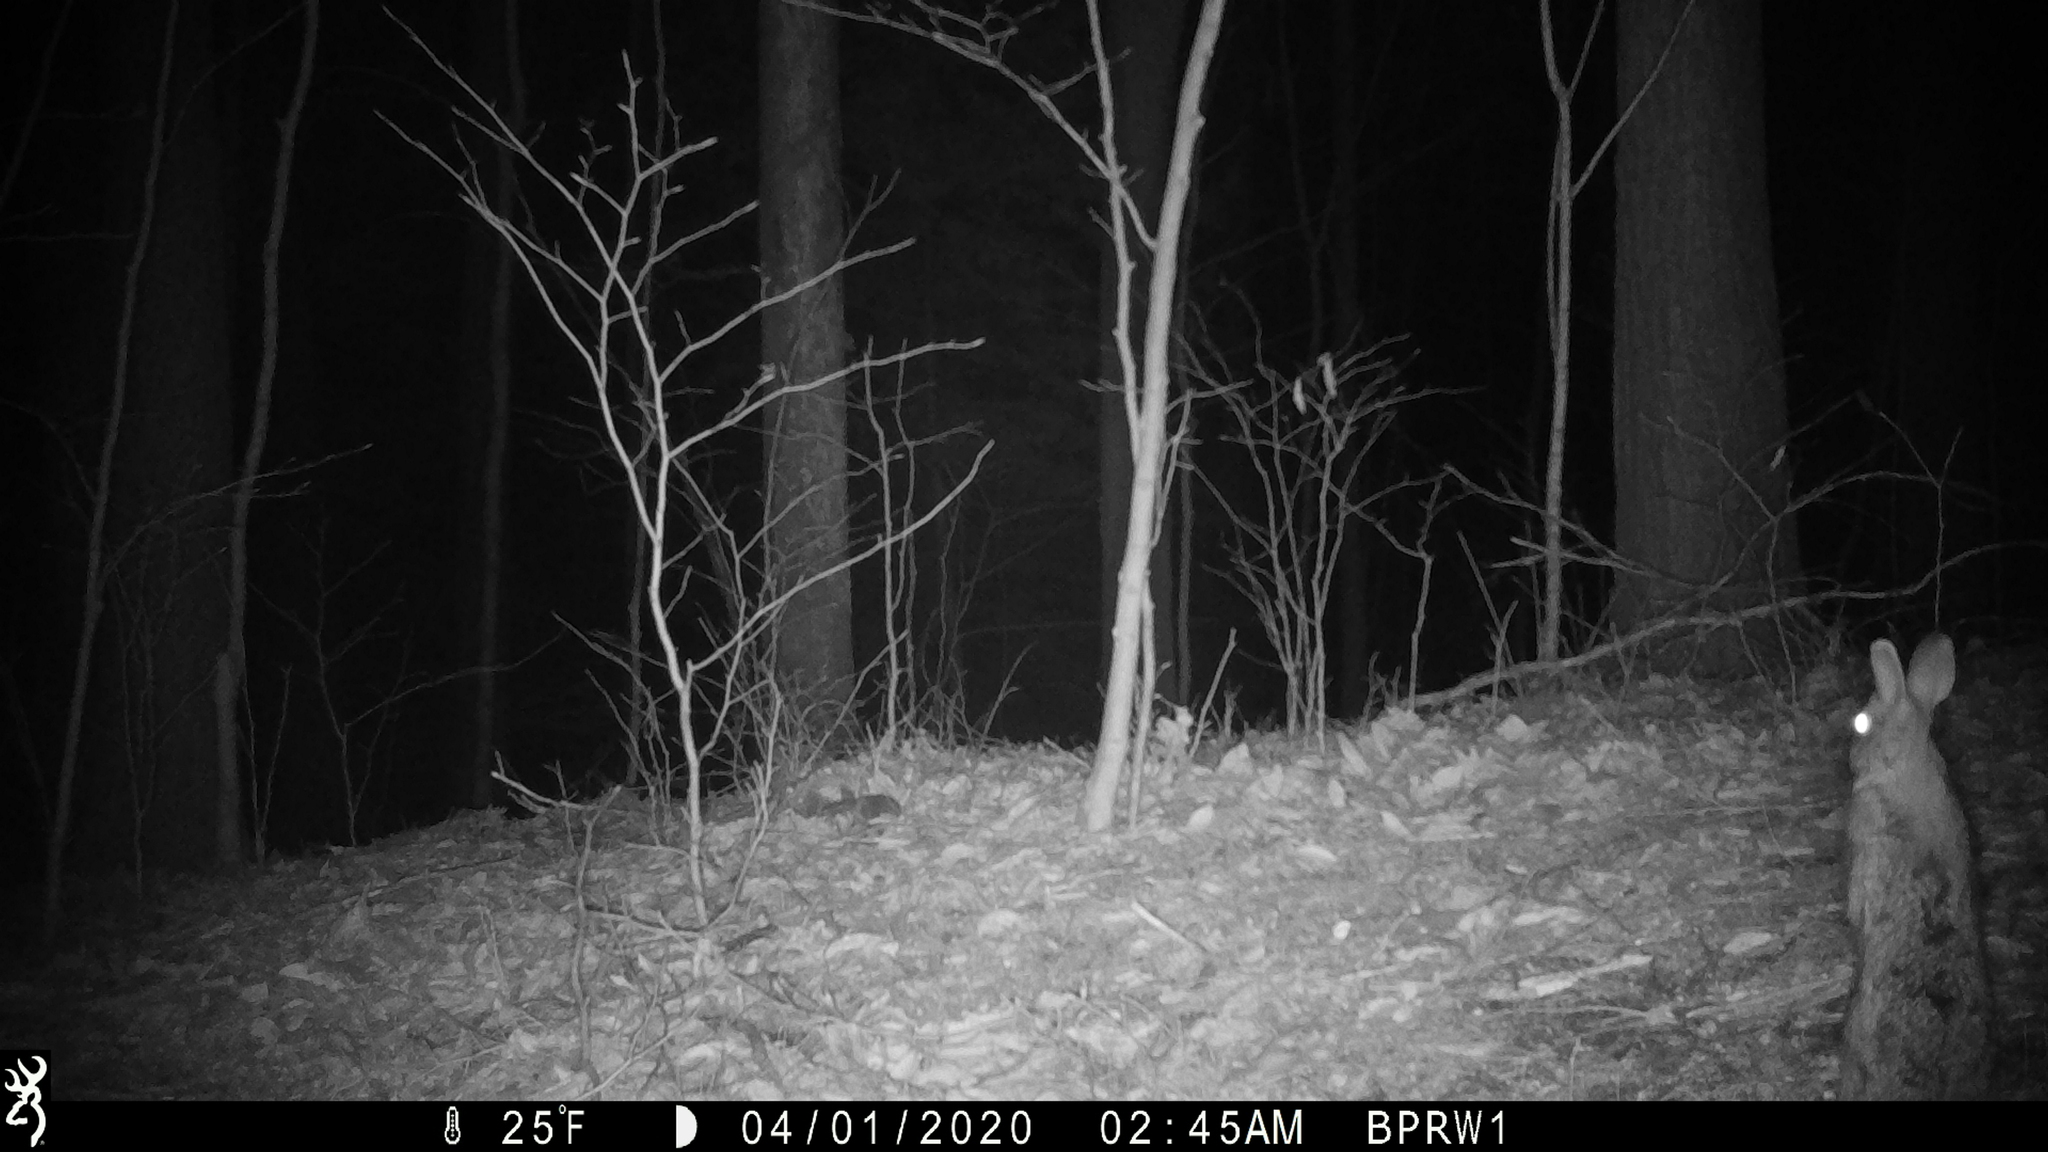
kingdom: Animalia
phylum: Chordata
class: Mammalia
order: Lagomorpha
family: Leporidae
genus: Sylvilagus
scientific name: Sylvilagus floridanus
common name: Eastern cottontail
